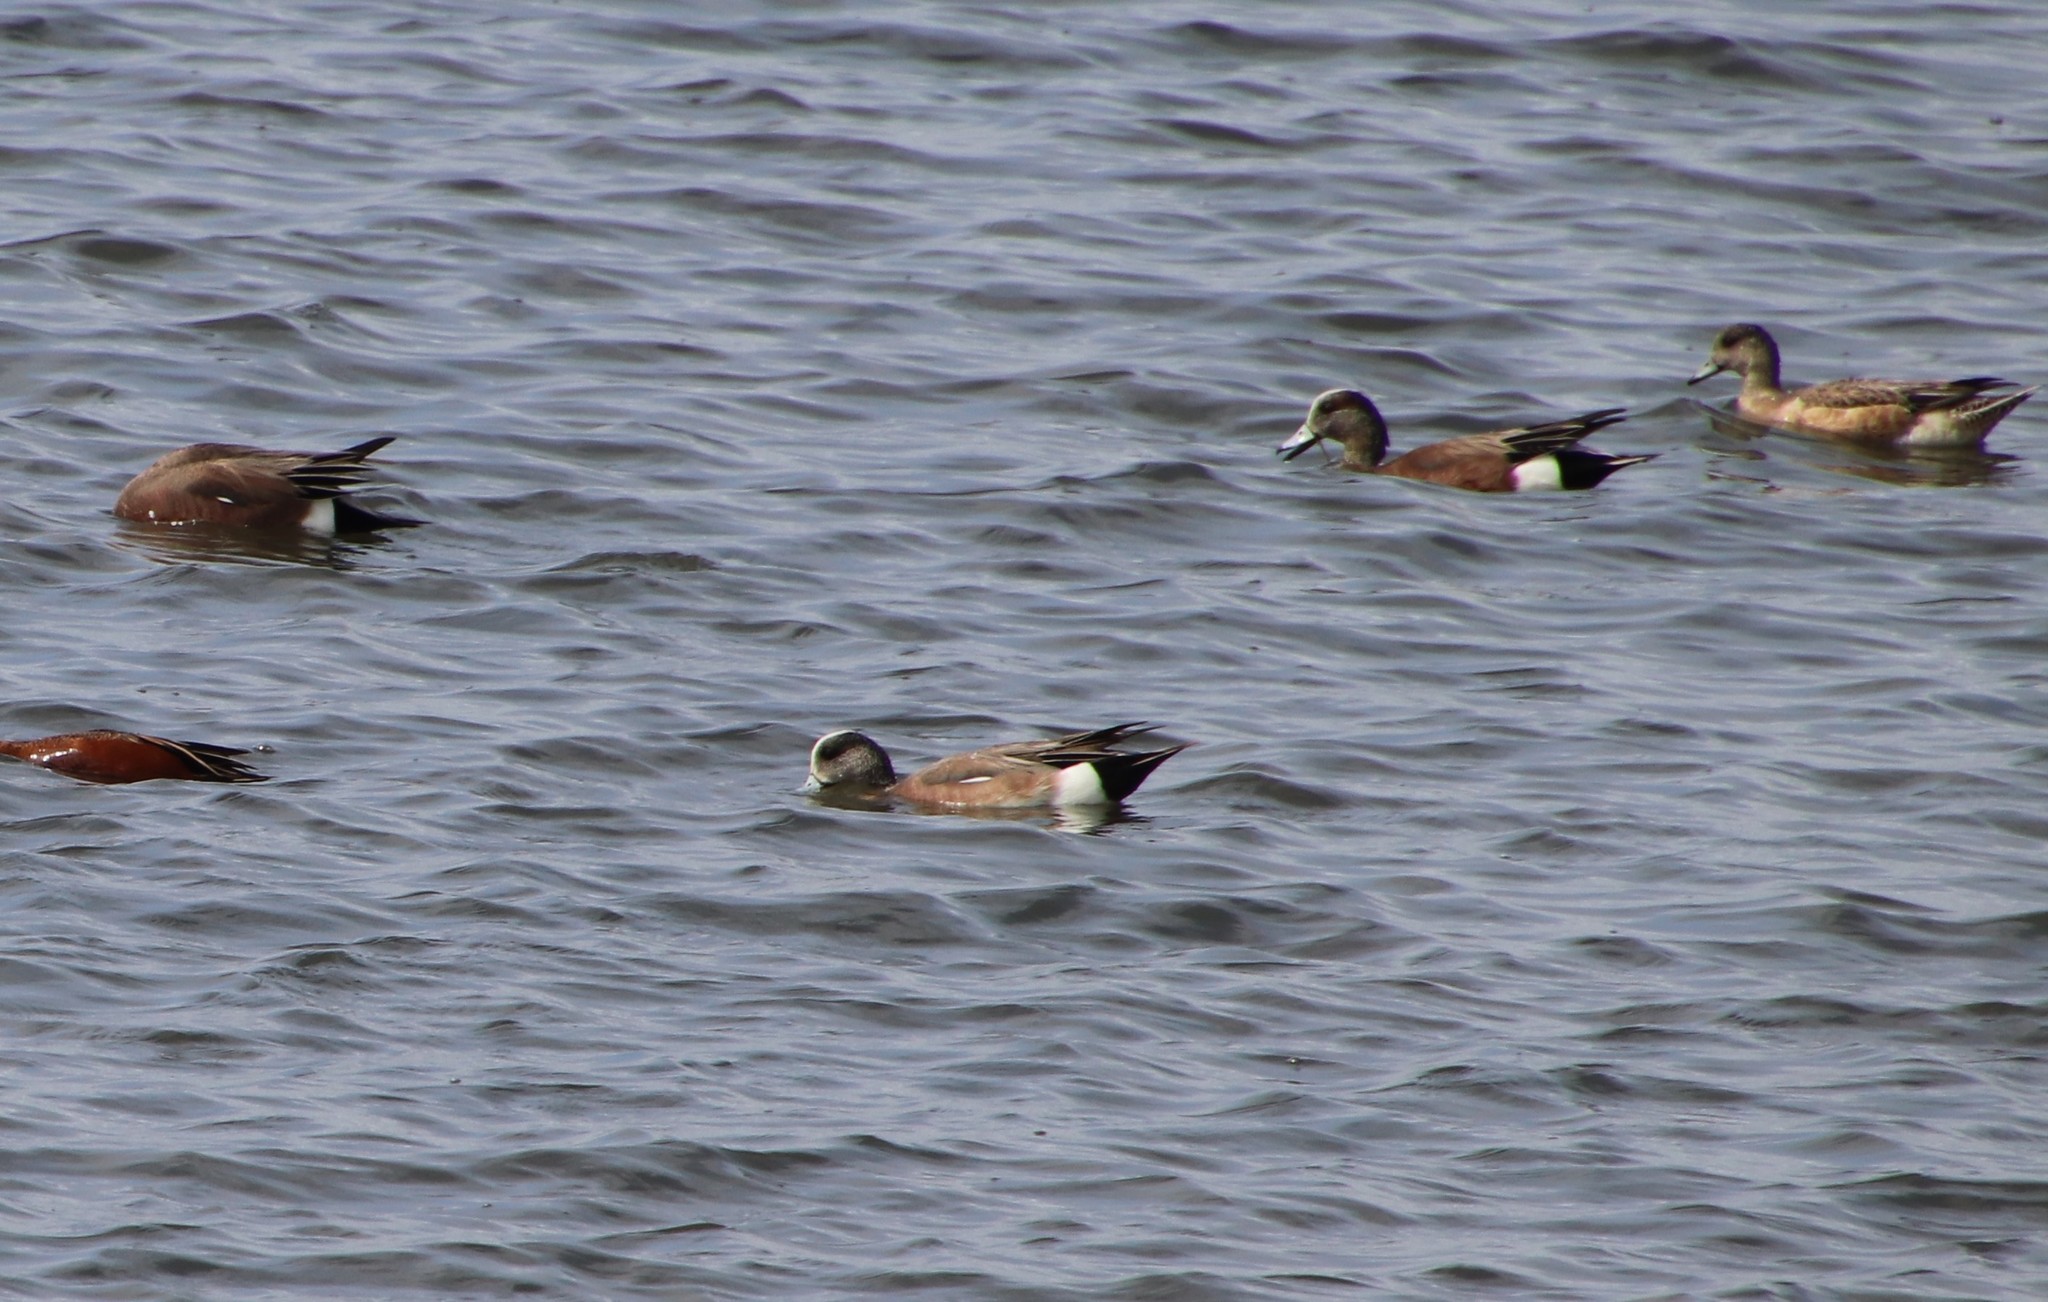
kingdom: Animalia
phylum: Chordata
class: Aves
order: Anseriformes
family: Anatidae
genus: Mareca
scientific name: Mareca americana
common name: American wigeon
